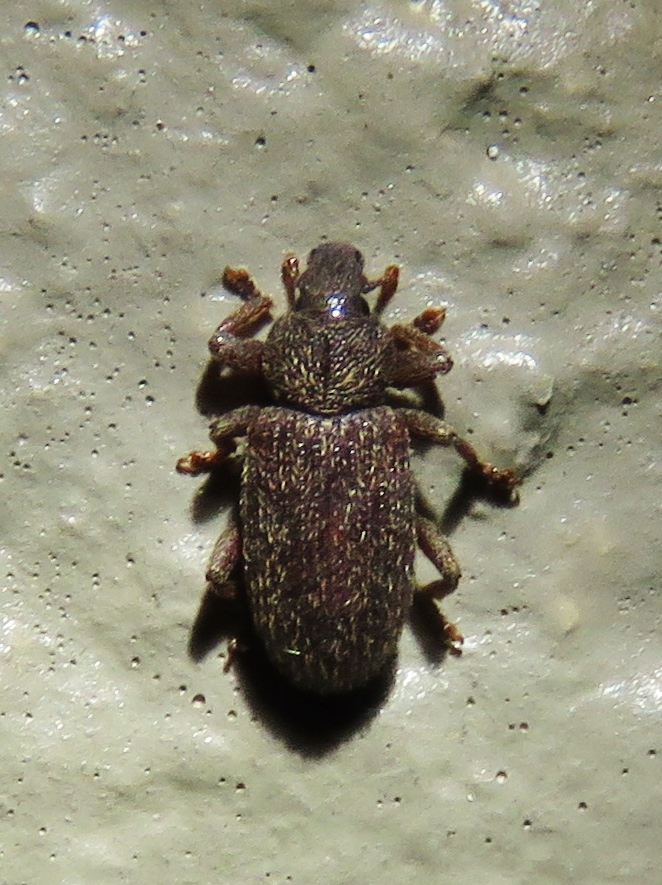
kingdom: Animalia
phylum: Arthropoda
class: Insecta
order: Coleoptera
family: Curculionidae
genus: Hormops
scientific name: Hormops abducens
